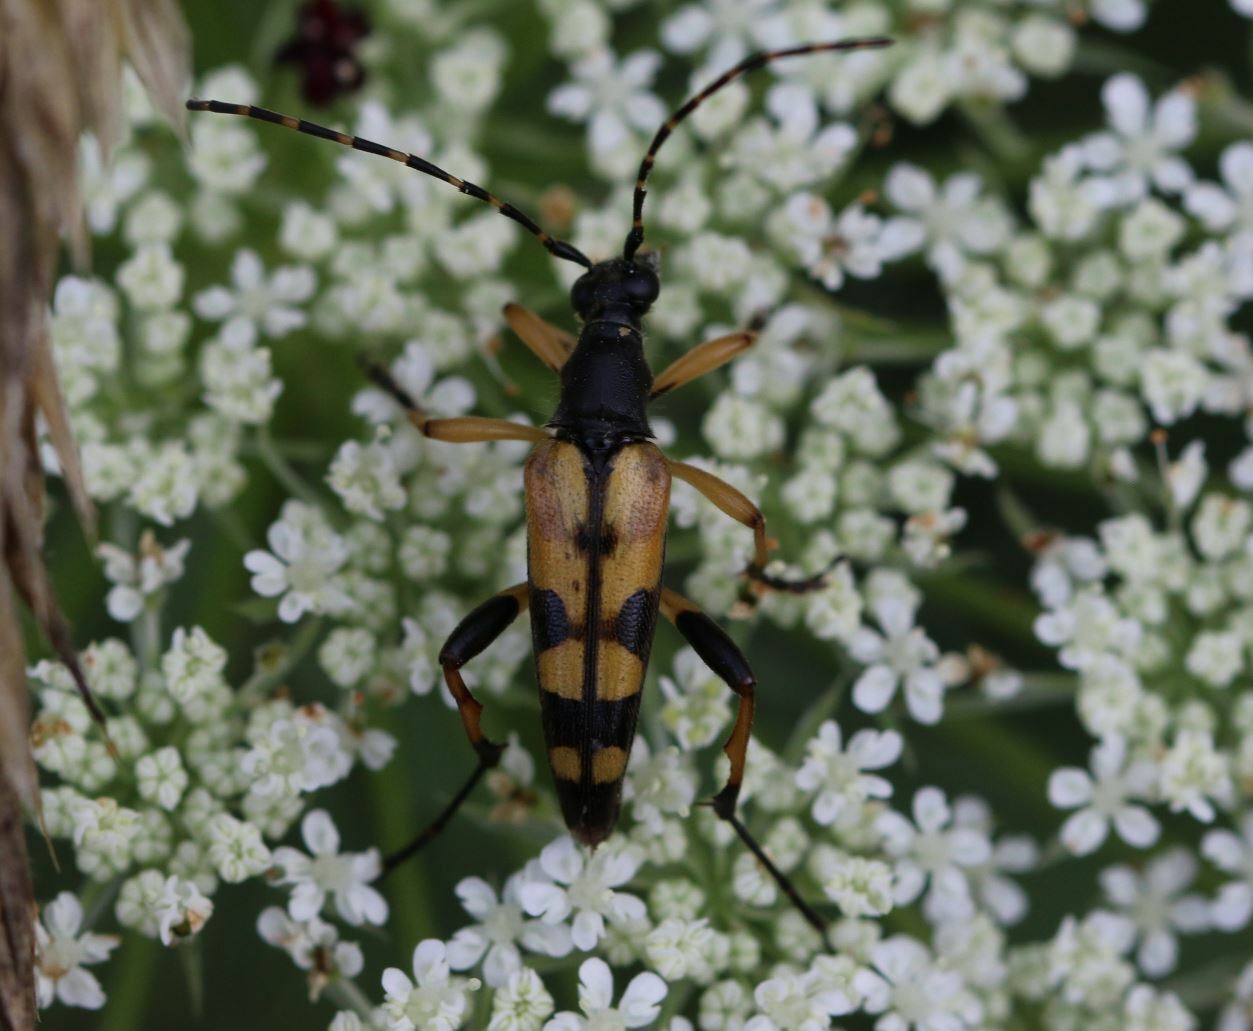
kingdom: Animalia
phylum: Arthropoda
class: Insecta
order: Coleoptera
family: Cerambycidae
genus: Rutpela
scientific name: Rutpela maculata
